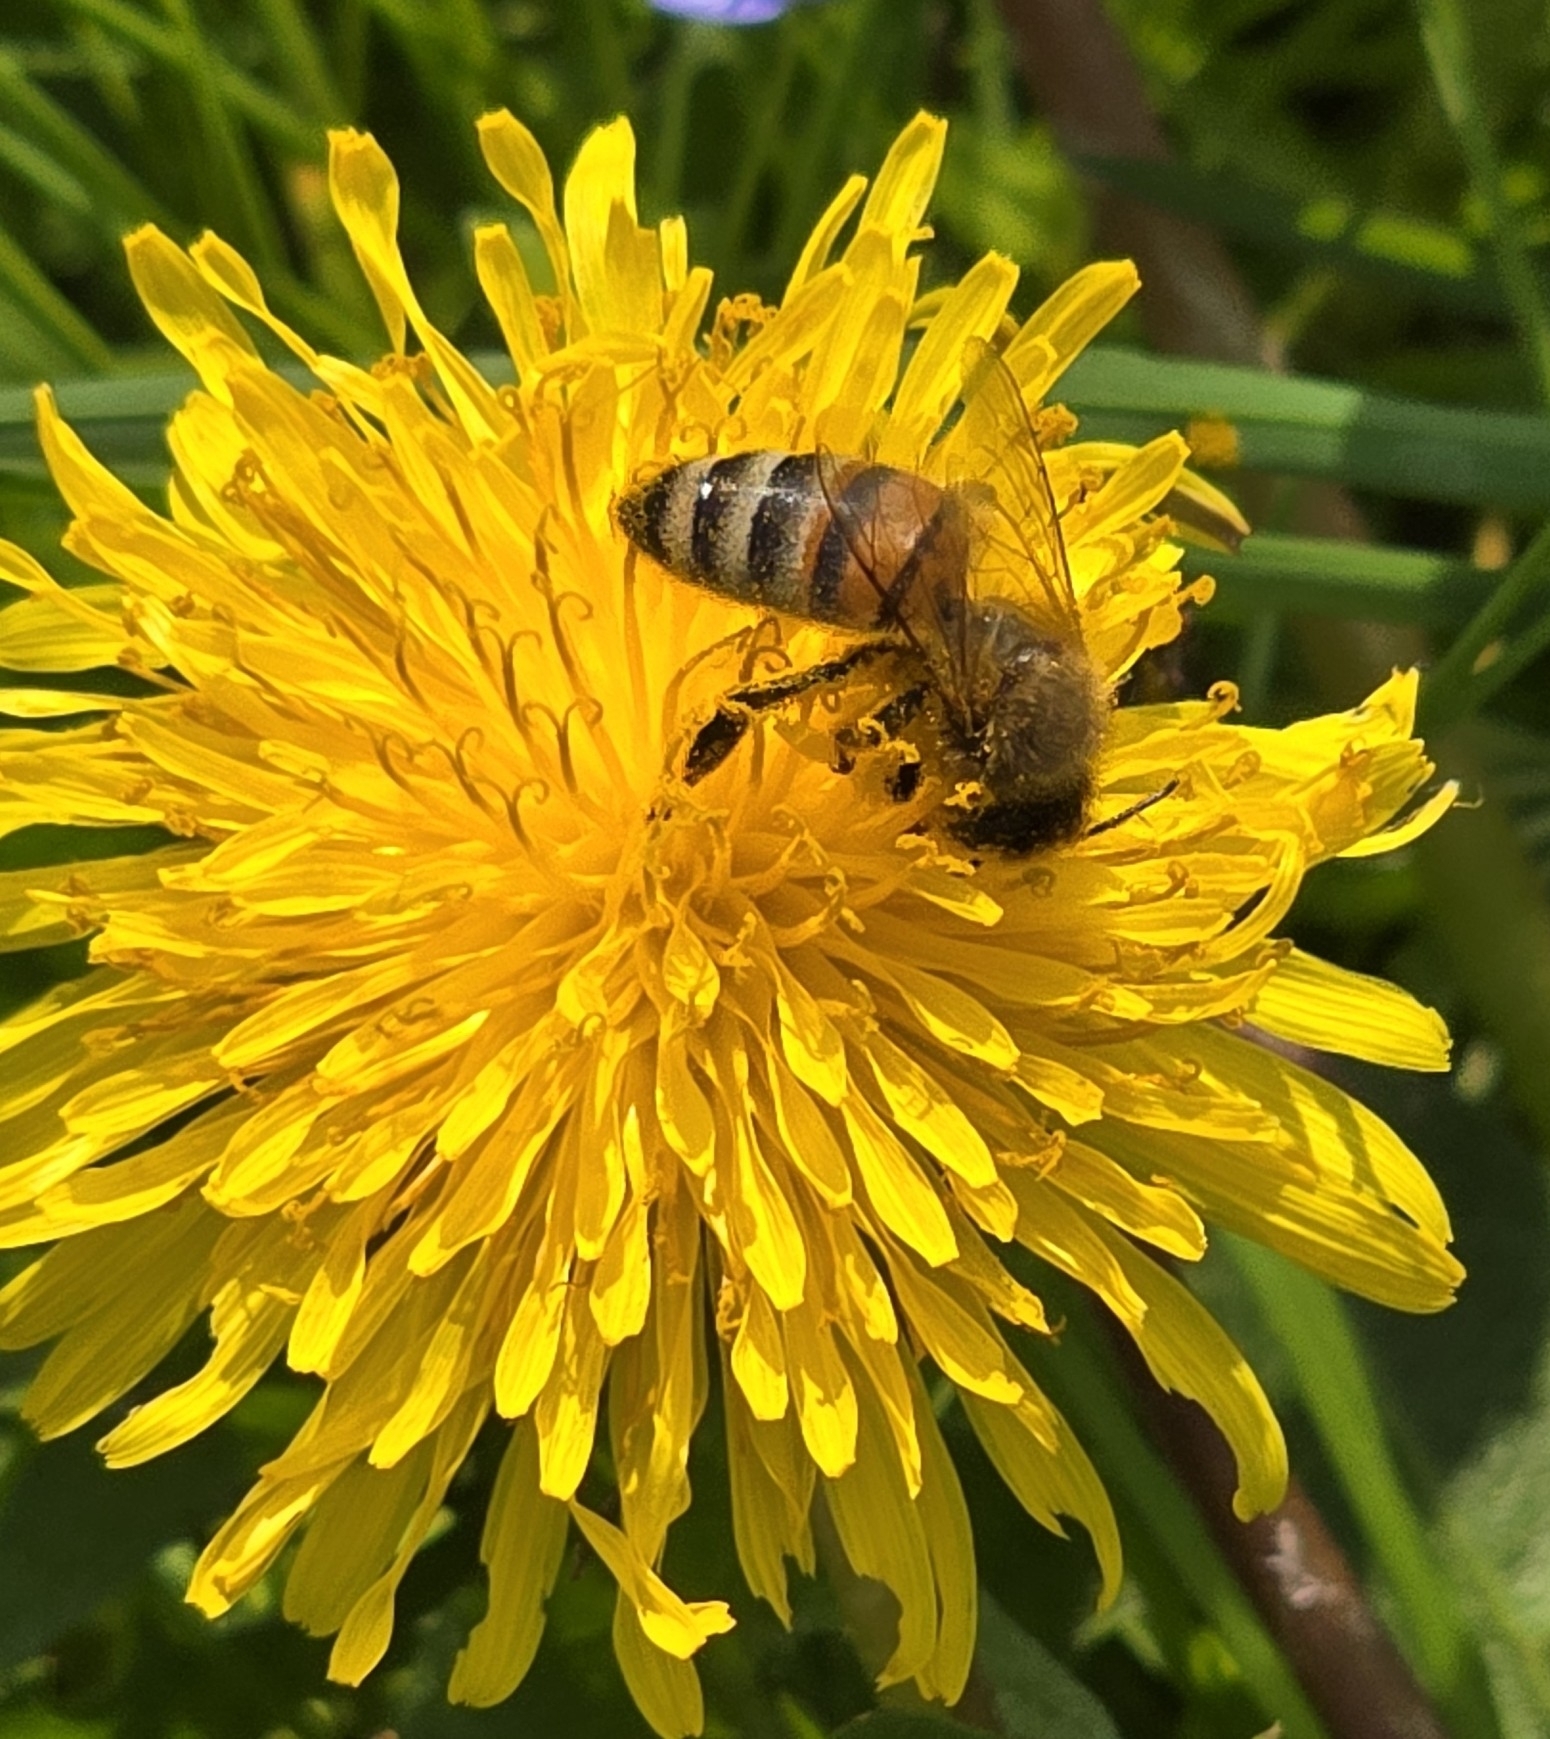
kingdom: Animalia
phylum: Arthropoda
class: Insecta
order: Hymenoptera
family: Apidae
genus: Apis
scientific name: Apis mellifera
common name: Honey bee
